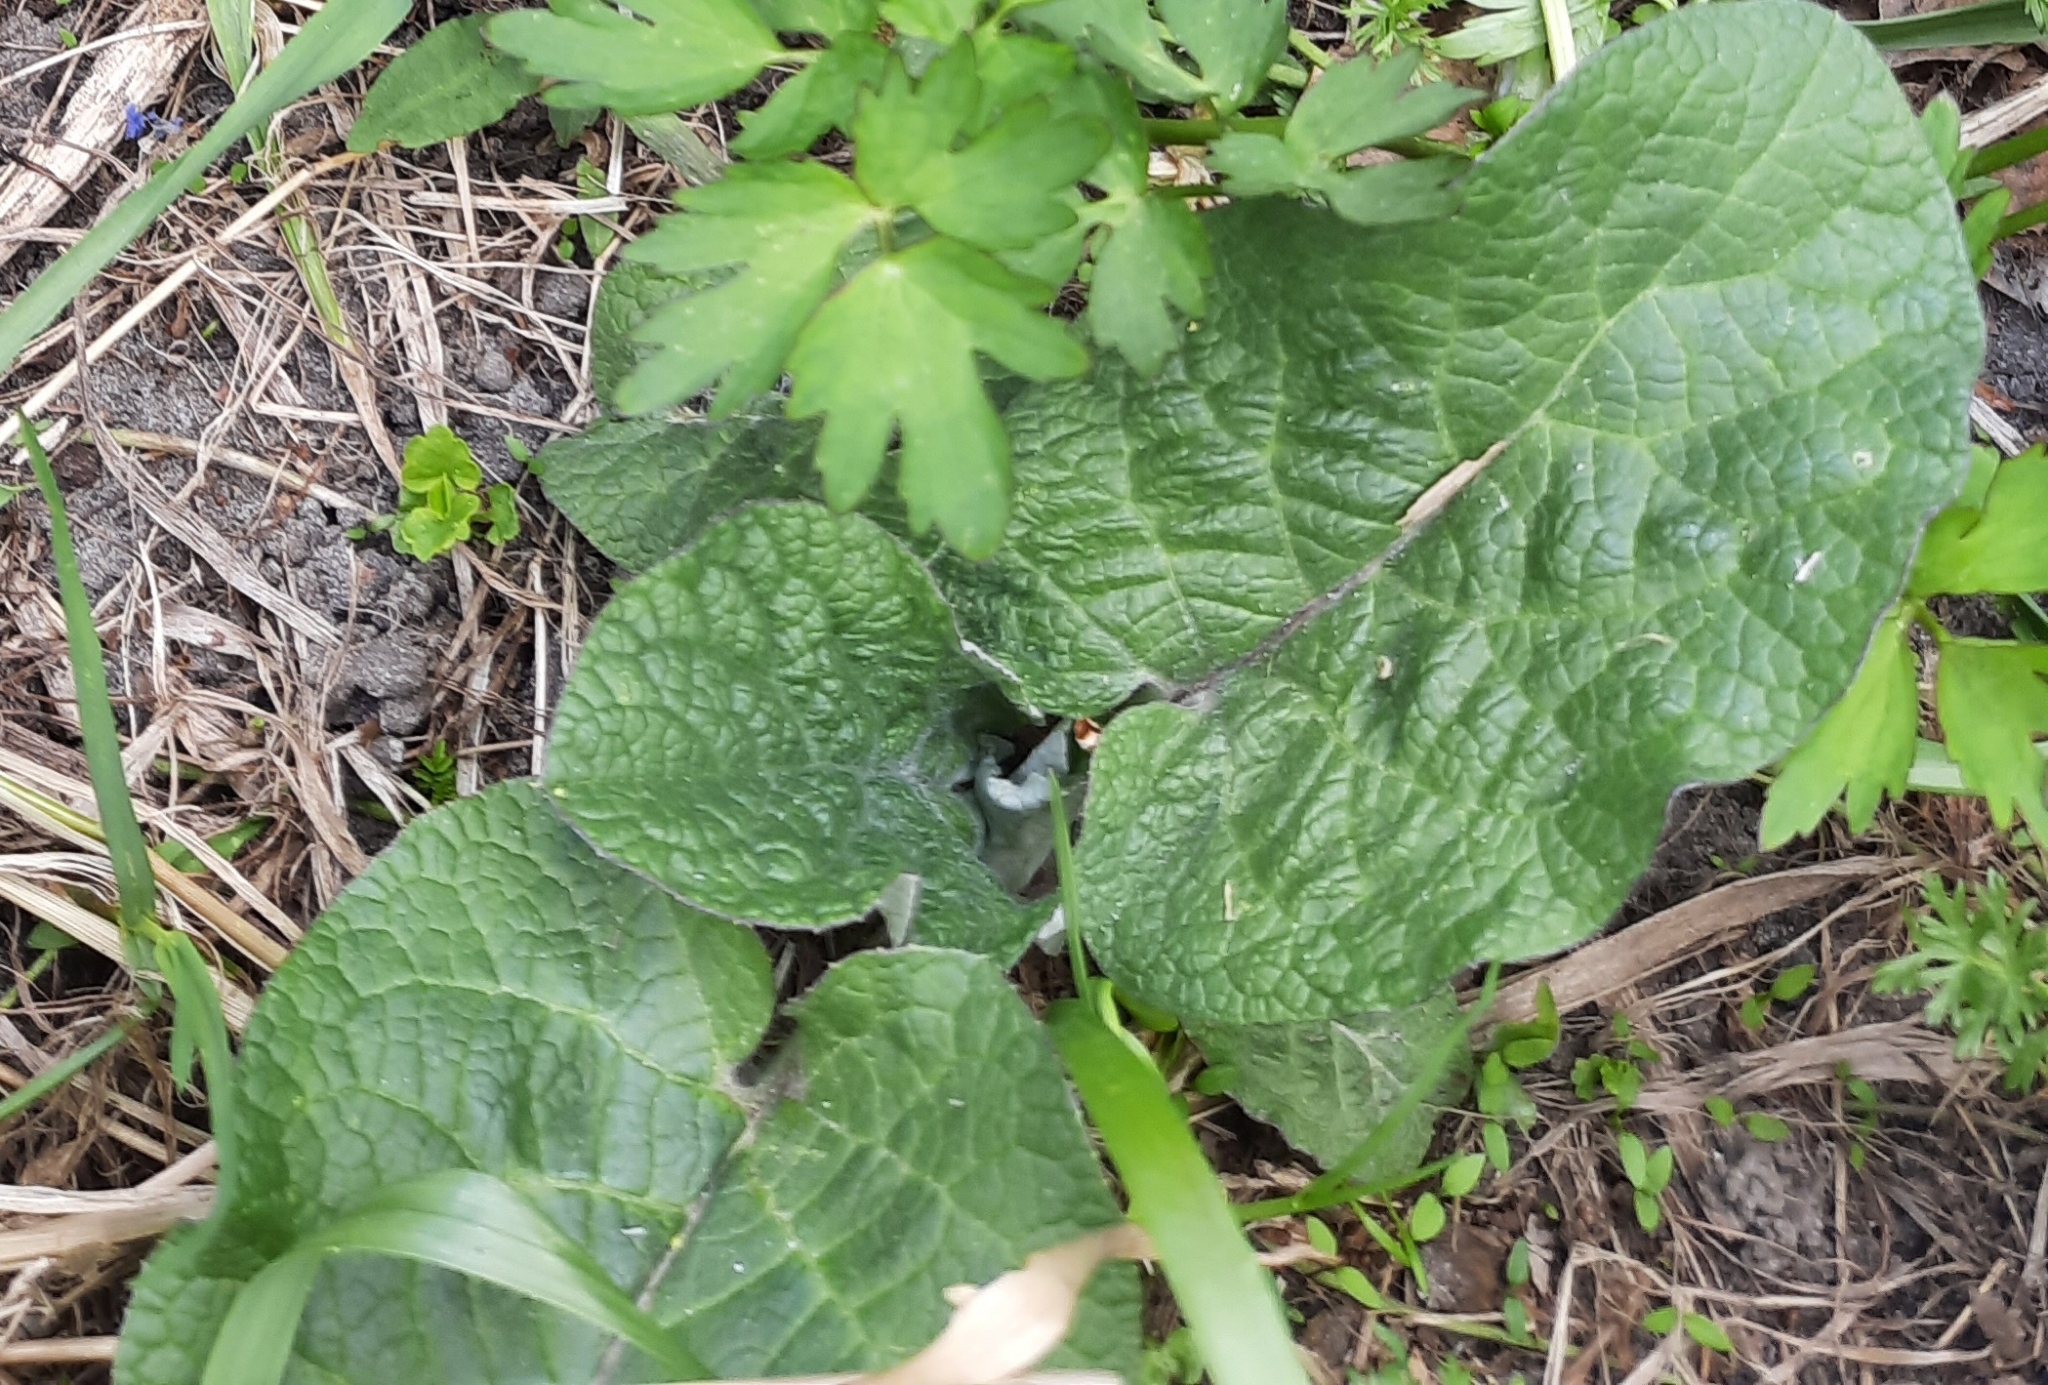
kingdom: Plantae
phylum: Tracheophyta
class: Magnoliopsida
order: Asterales
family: Asteraceae
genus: Arctium
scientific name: Arctium tomentosum
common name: Woolly burdock
